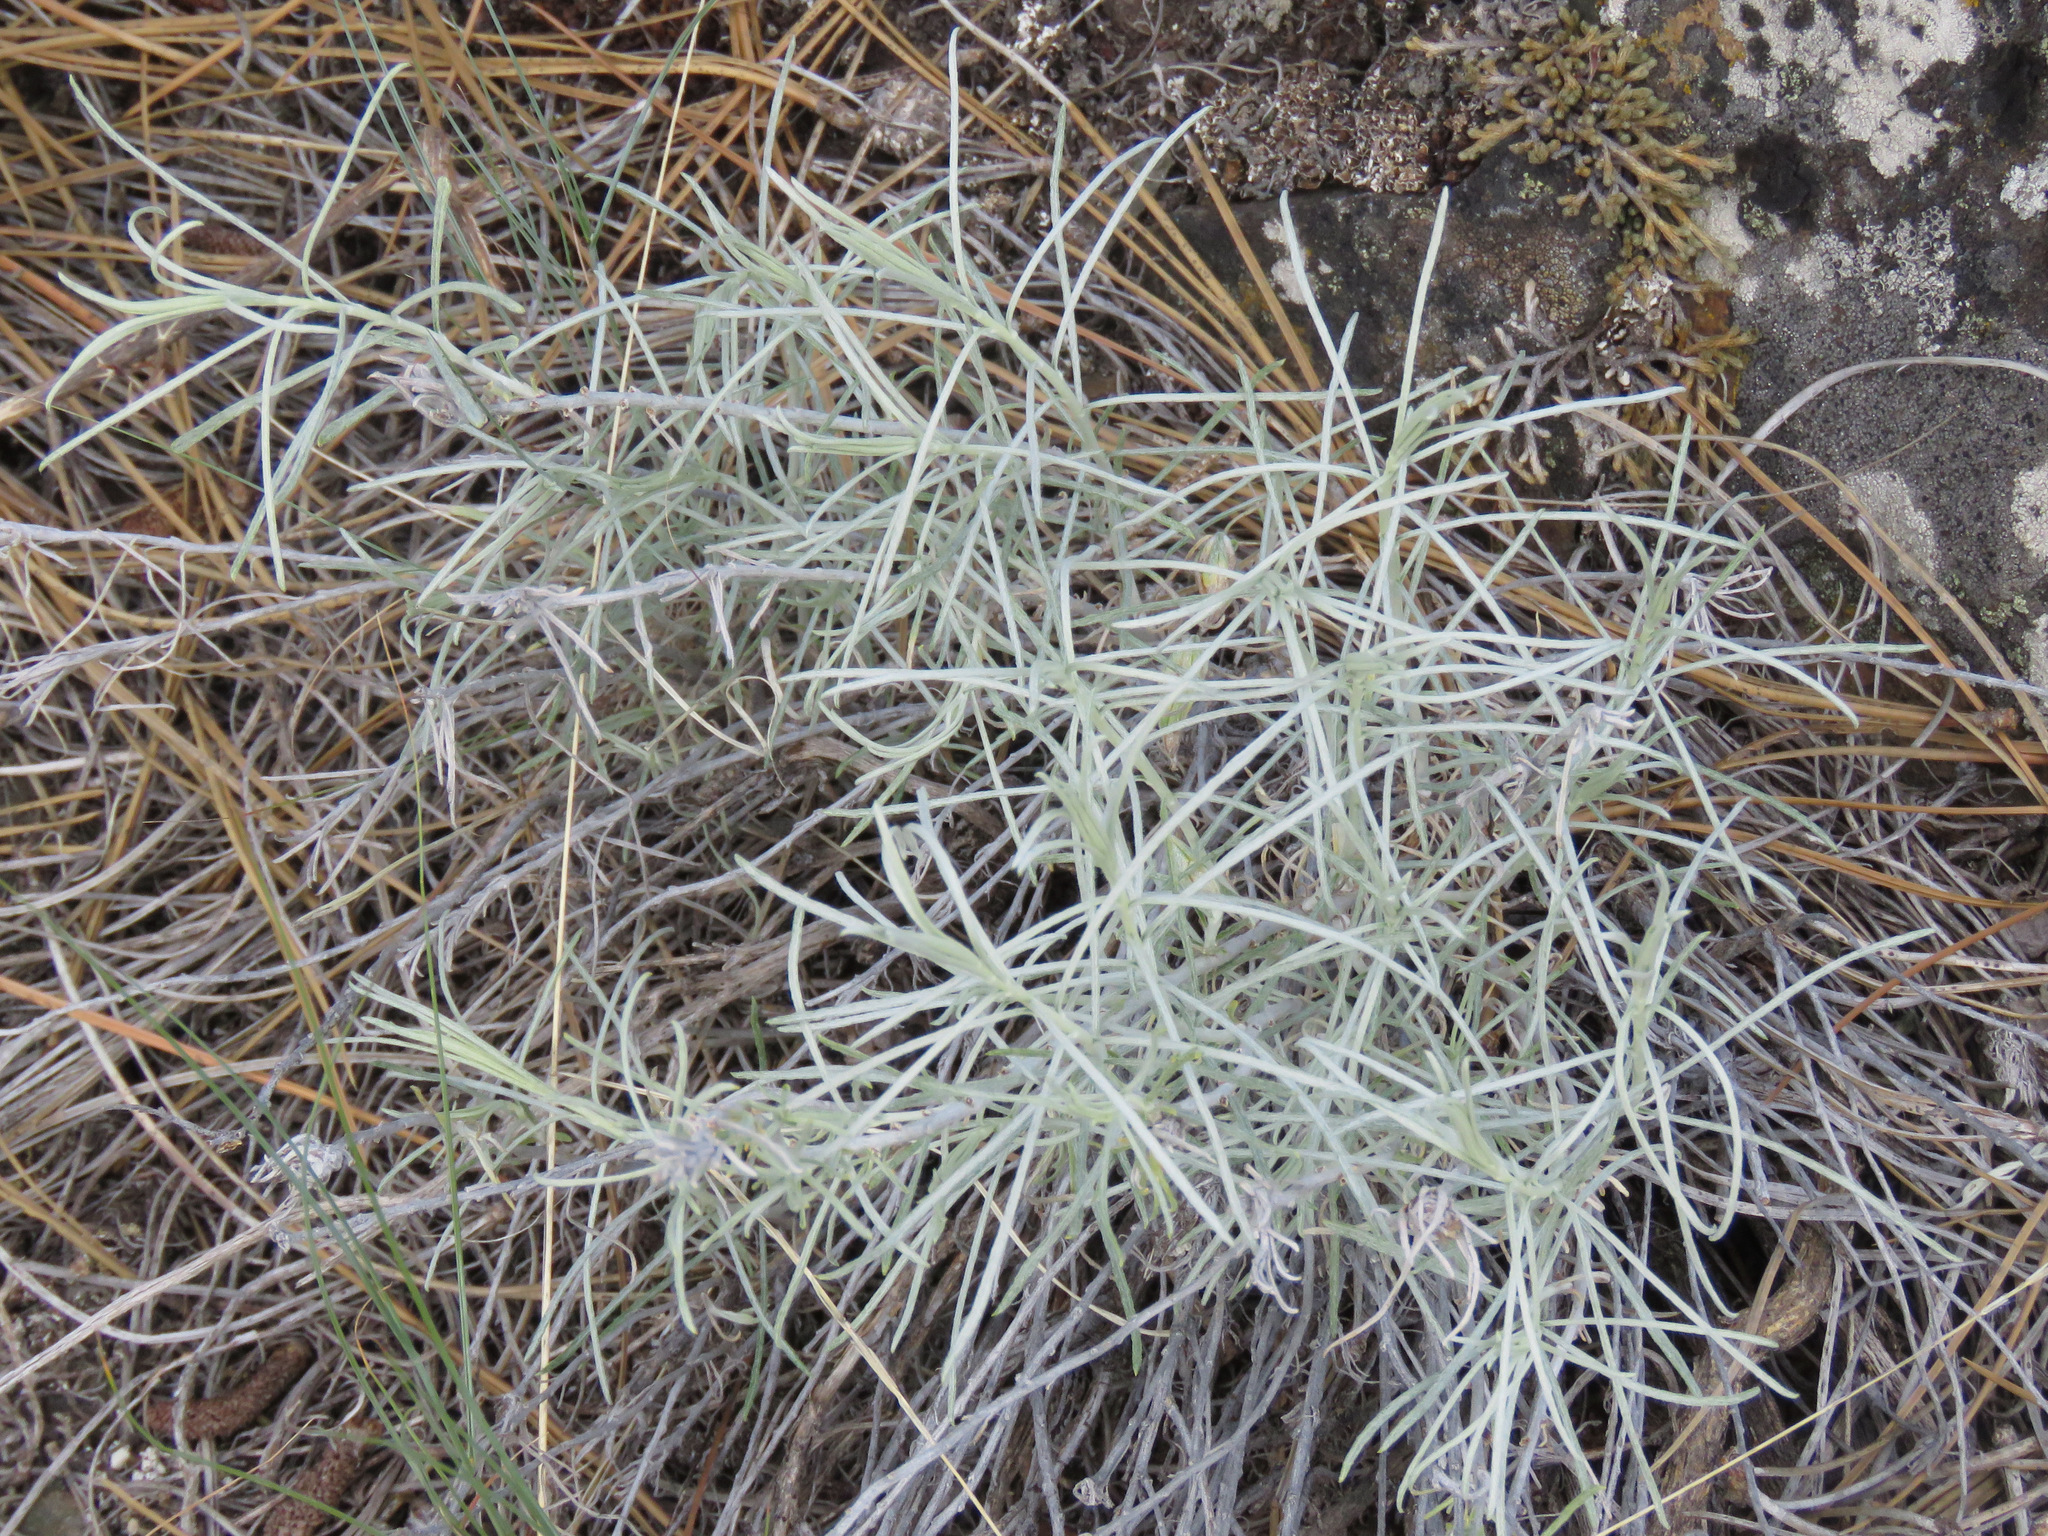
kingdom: Plantae
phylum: Tracheophyta
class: Magnoliopsida
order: Asterales
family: Asteraceae
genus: Ericameria
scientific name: Ericameria nauseosa
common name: Rubber rabbitbrush
